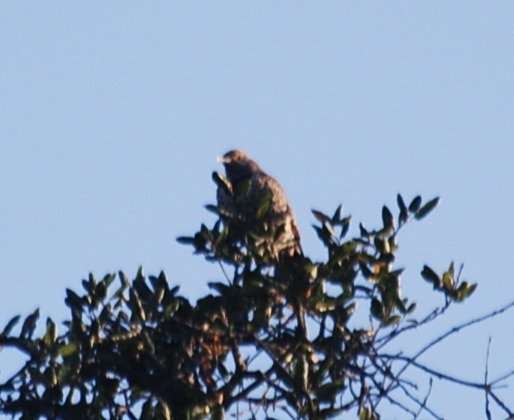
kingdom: Animalia
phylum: Chordata
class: Aves
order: Piciformes
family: Picidae
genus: Colaptes
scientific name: Colaptes auratus
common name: Northern flicker
